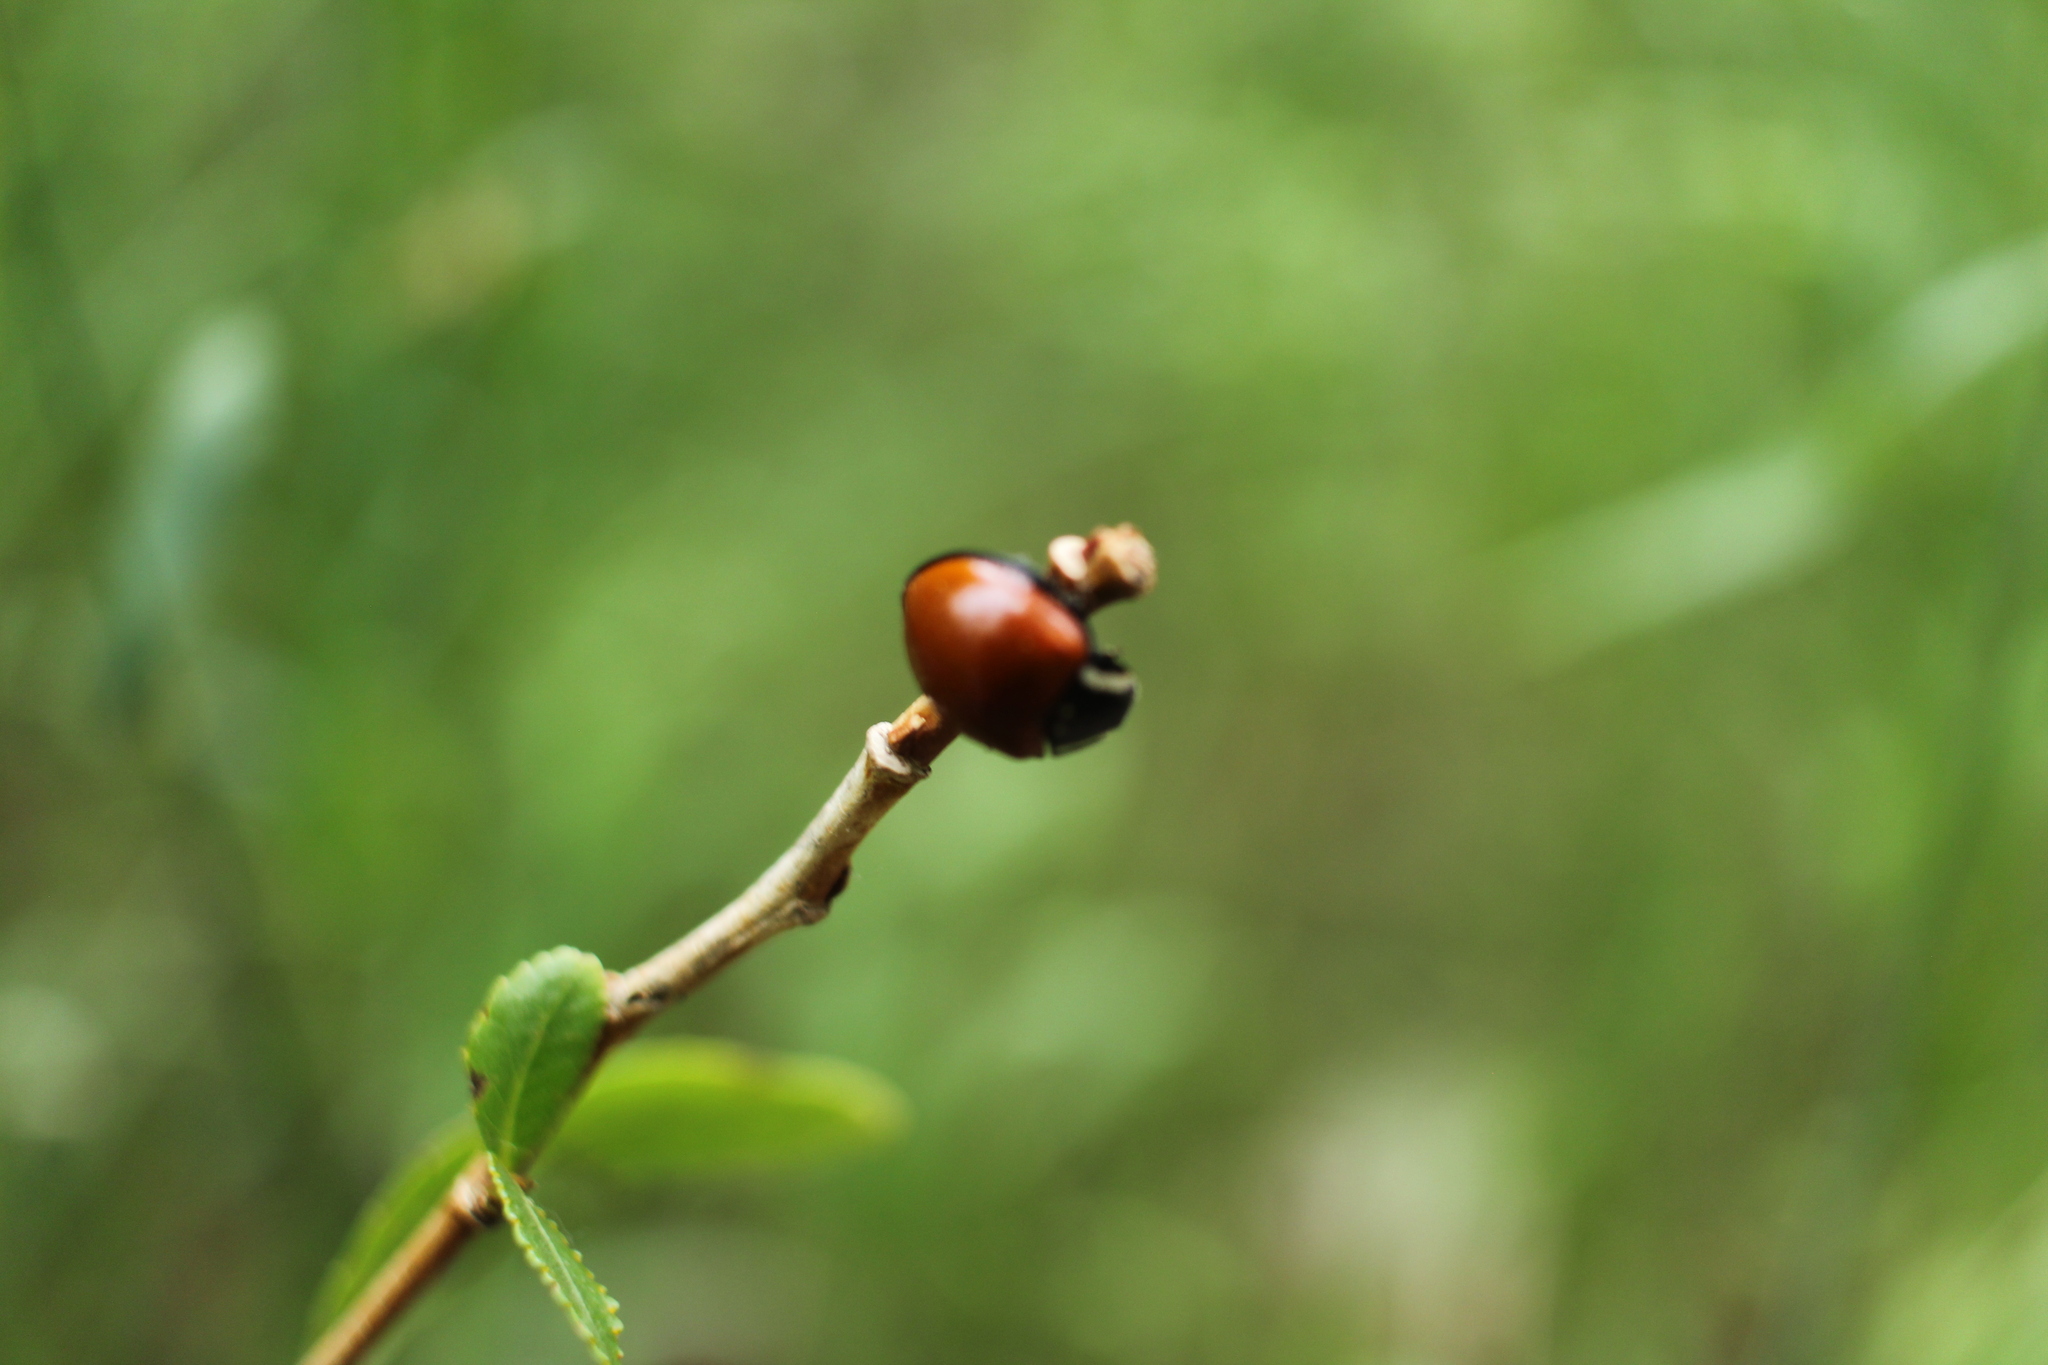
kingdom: Animalia
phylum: Arthropoda
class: Insecta
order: Coleoptera
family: Coccinellidae
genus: Anatis
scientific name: Anatis lecontei
